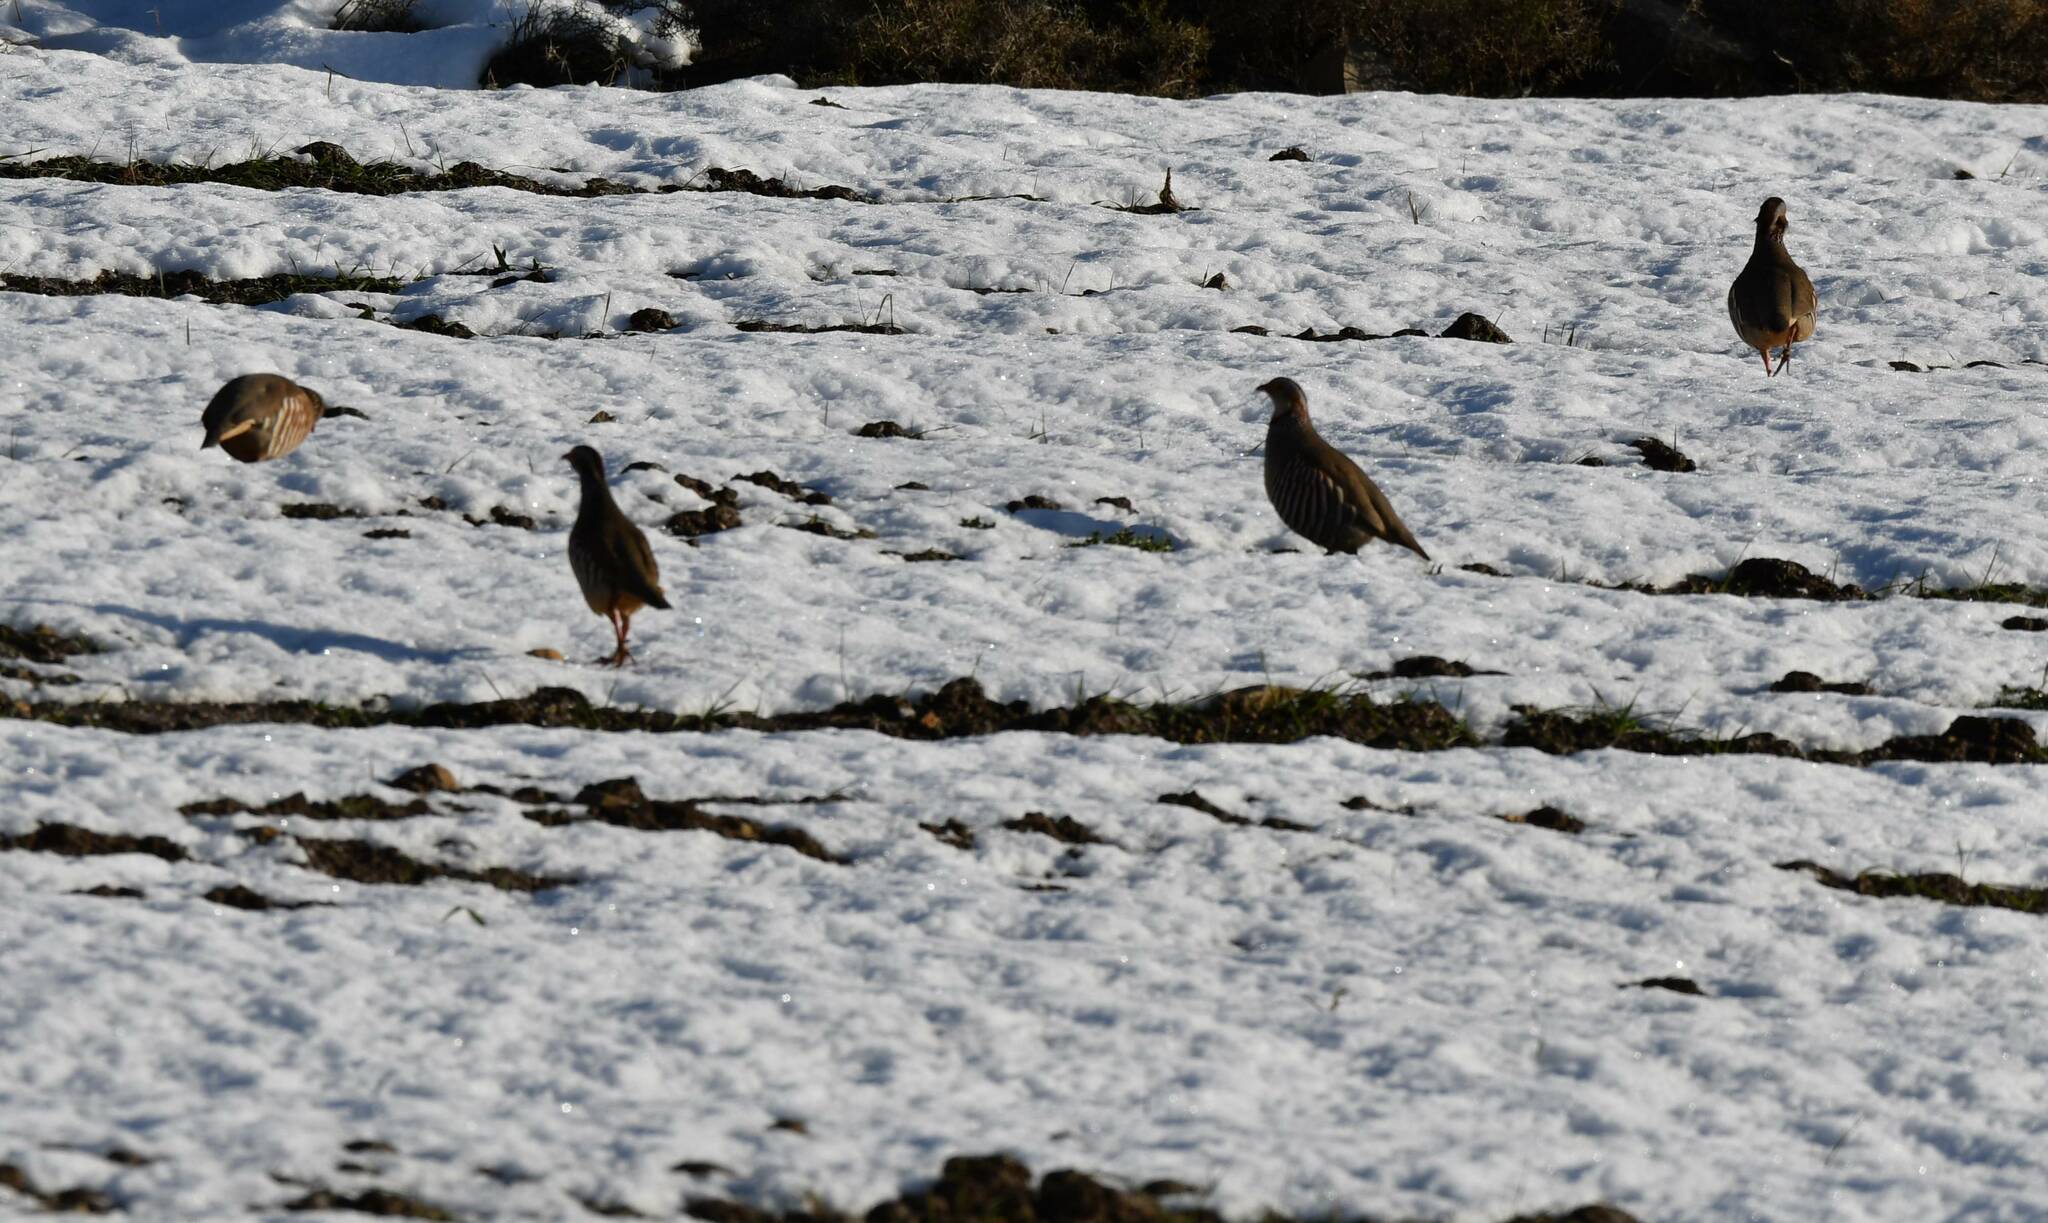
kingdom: Animalia
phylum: Chordata
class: Aves
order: Galliformes
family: Phasianidae
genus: Alectoris
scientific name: Alectoris barbara
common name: Barbary partridge
